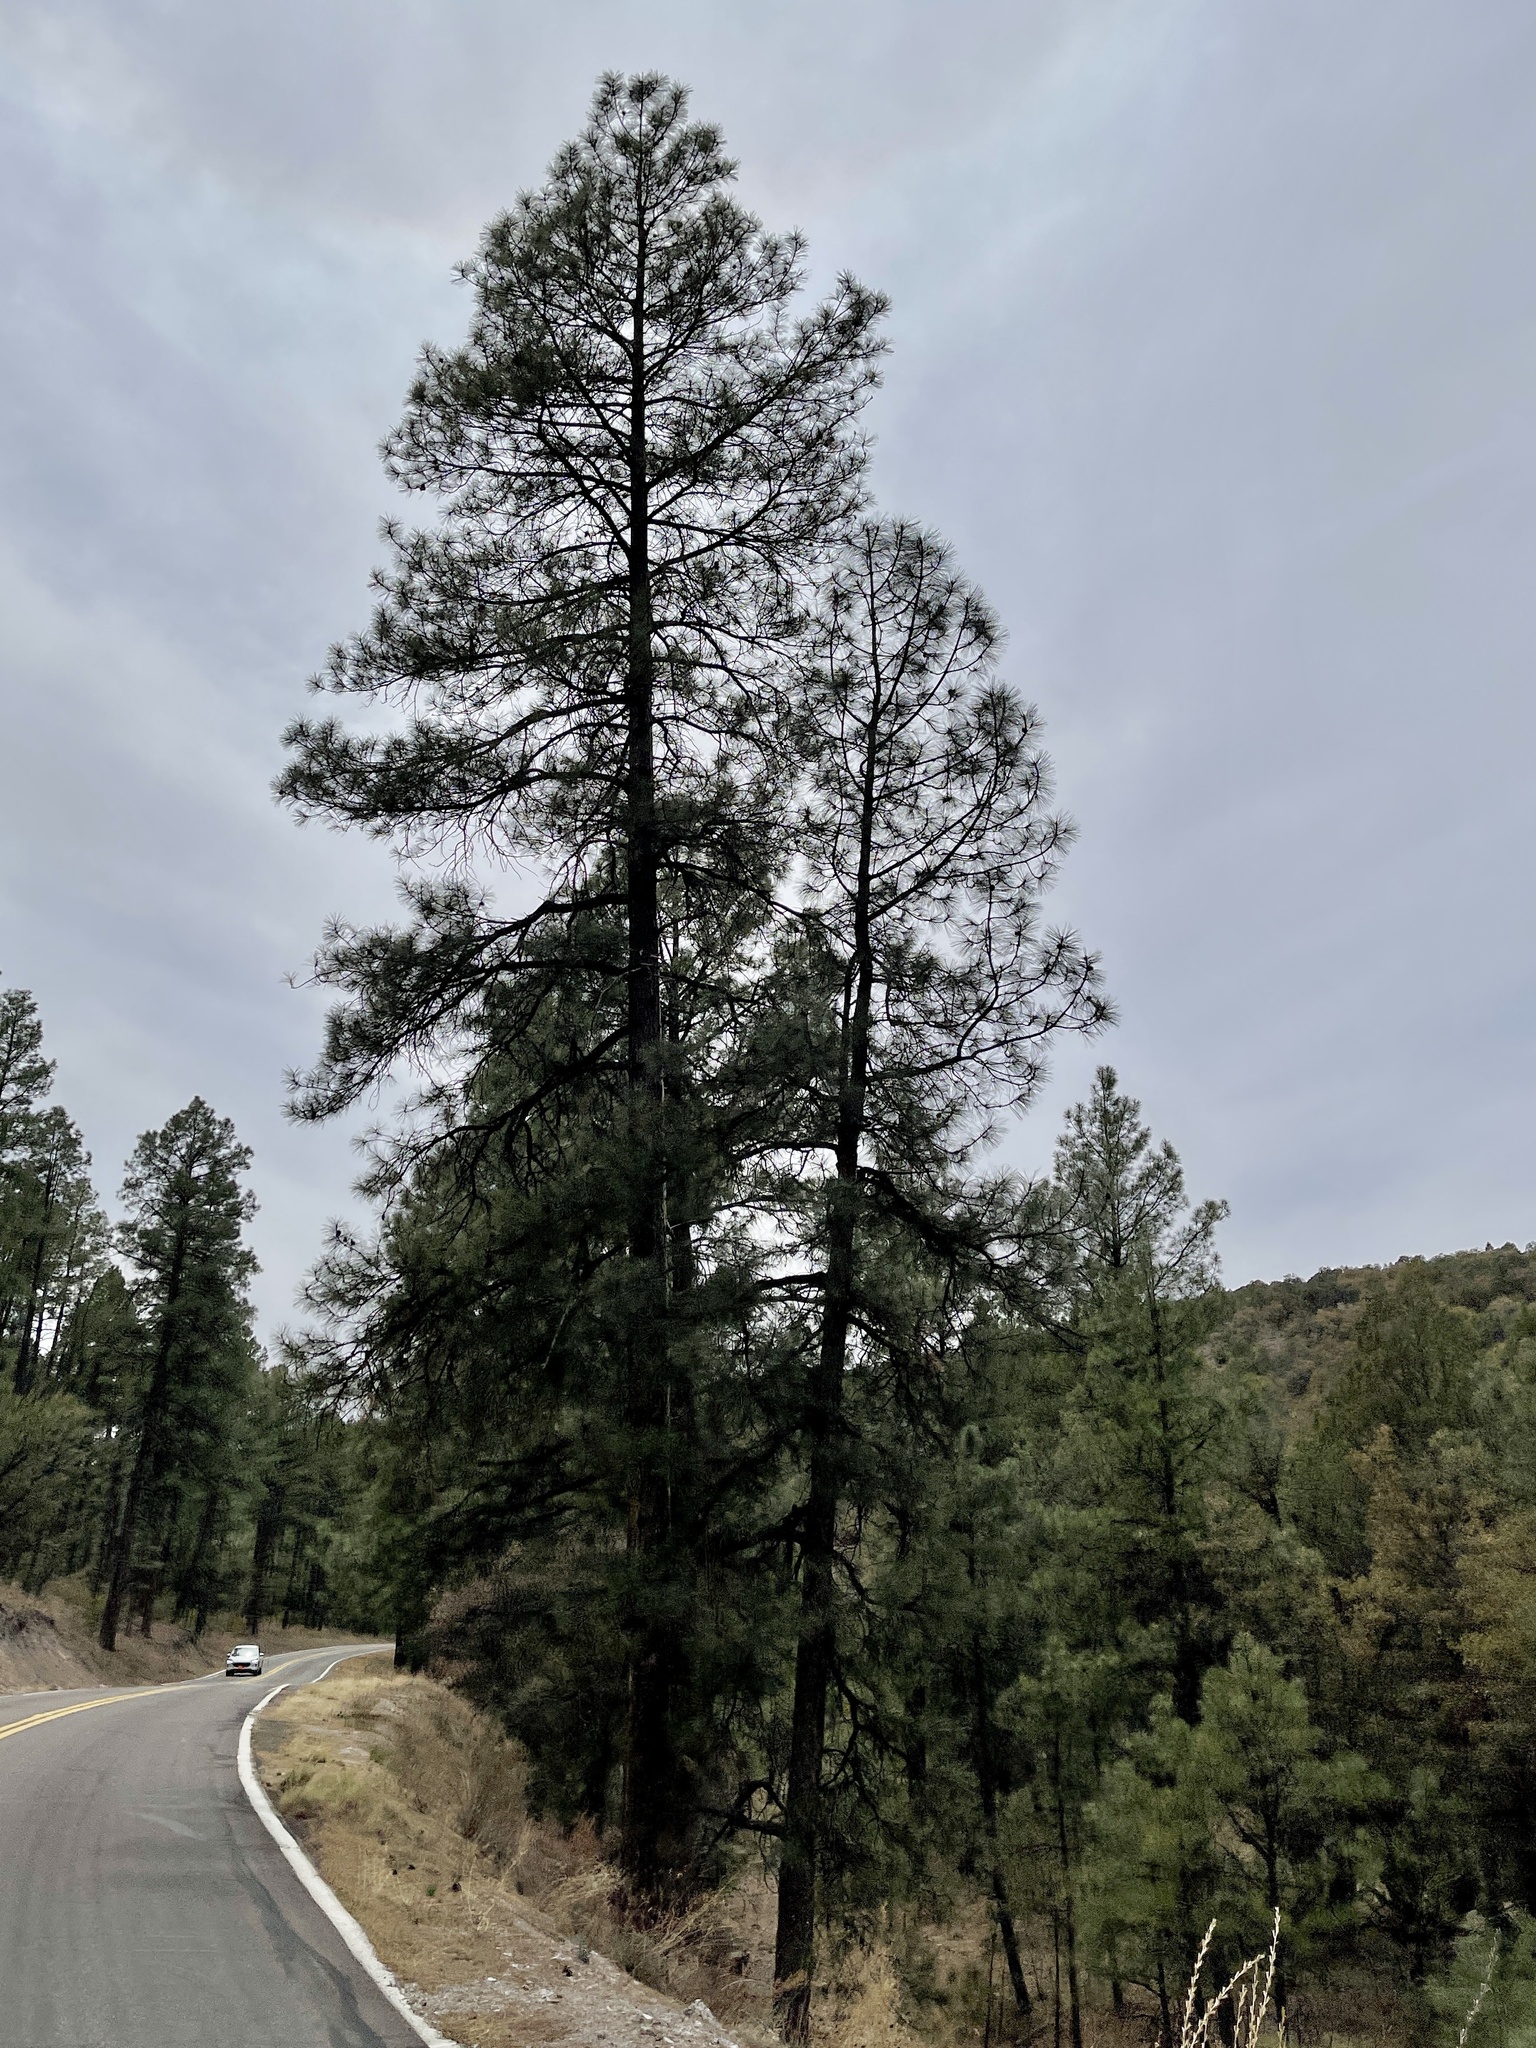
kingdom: Plantae
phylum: Tracheophyta
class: Pinopsida
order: Pinales
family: Pinaceae
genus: Pinus
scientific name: Pinus ponderosa
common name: Western yellow-pine
